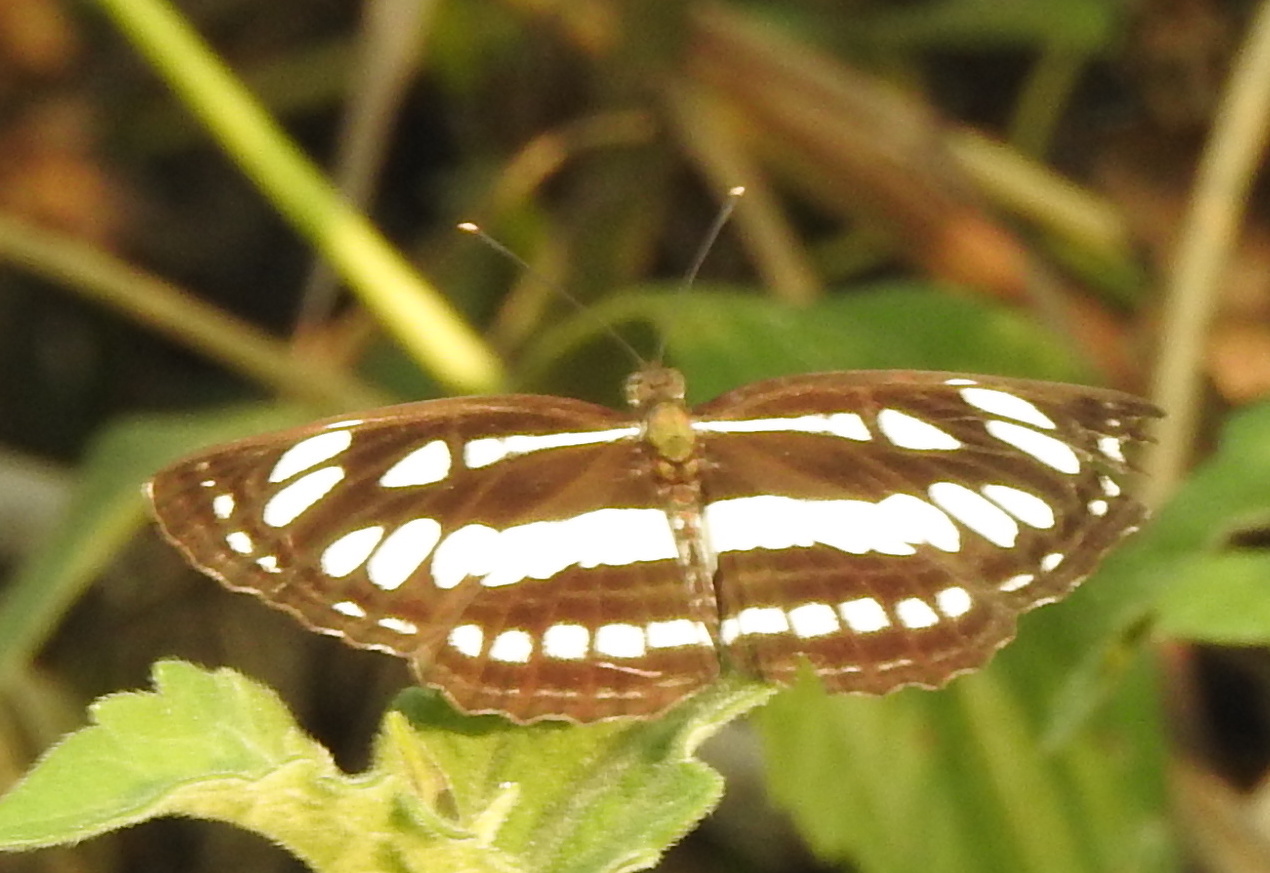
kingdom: Animalia
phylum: Arthropoda
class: Insecta
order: Lepidoptera
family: Nymphalidae
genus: Neptis
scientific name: Neptis hylas
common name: Common sailer
